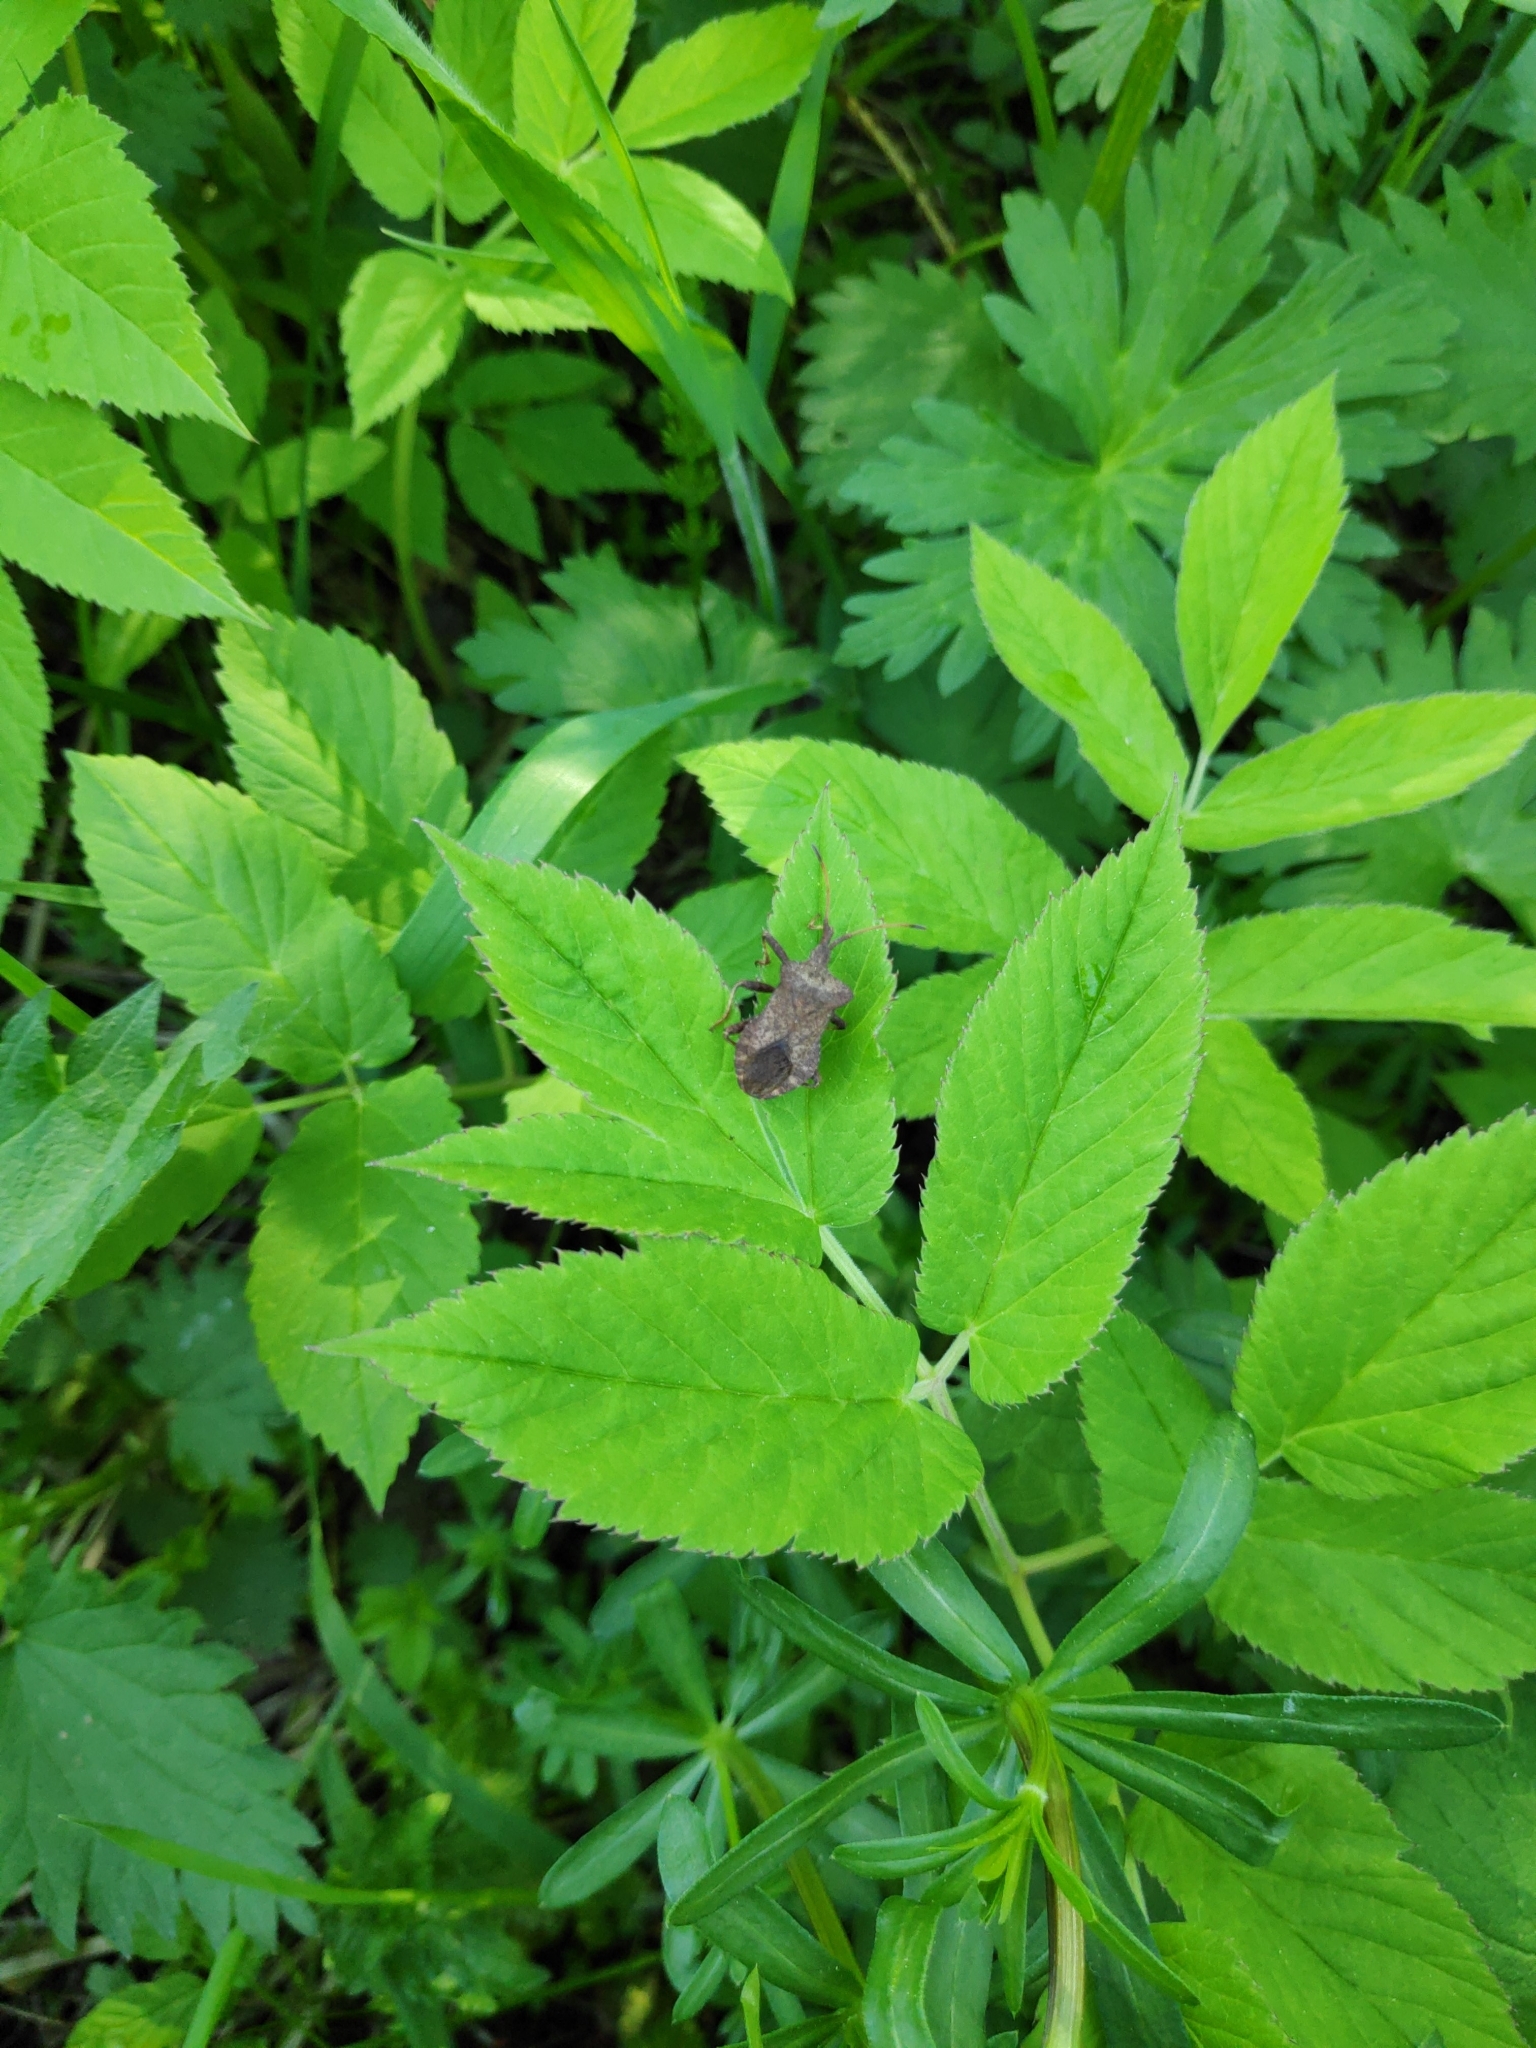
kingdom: Animalia
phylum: Arthropoda
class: Insecta
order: Hemiptera
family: Coreidae
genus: Coreus
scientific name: Coreus marginatus
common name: Dock bug
